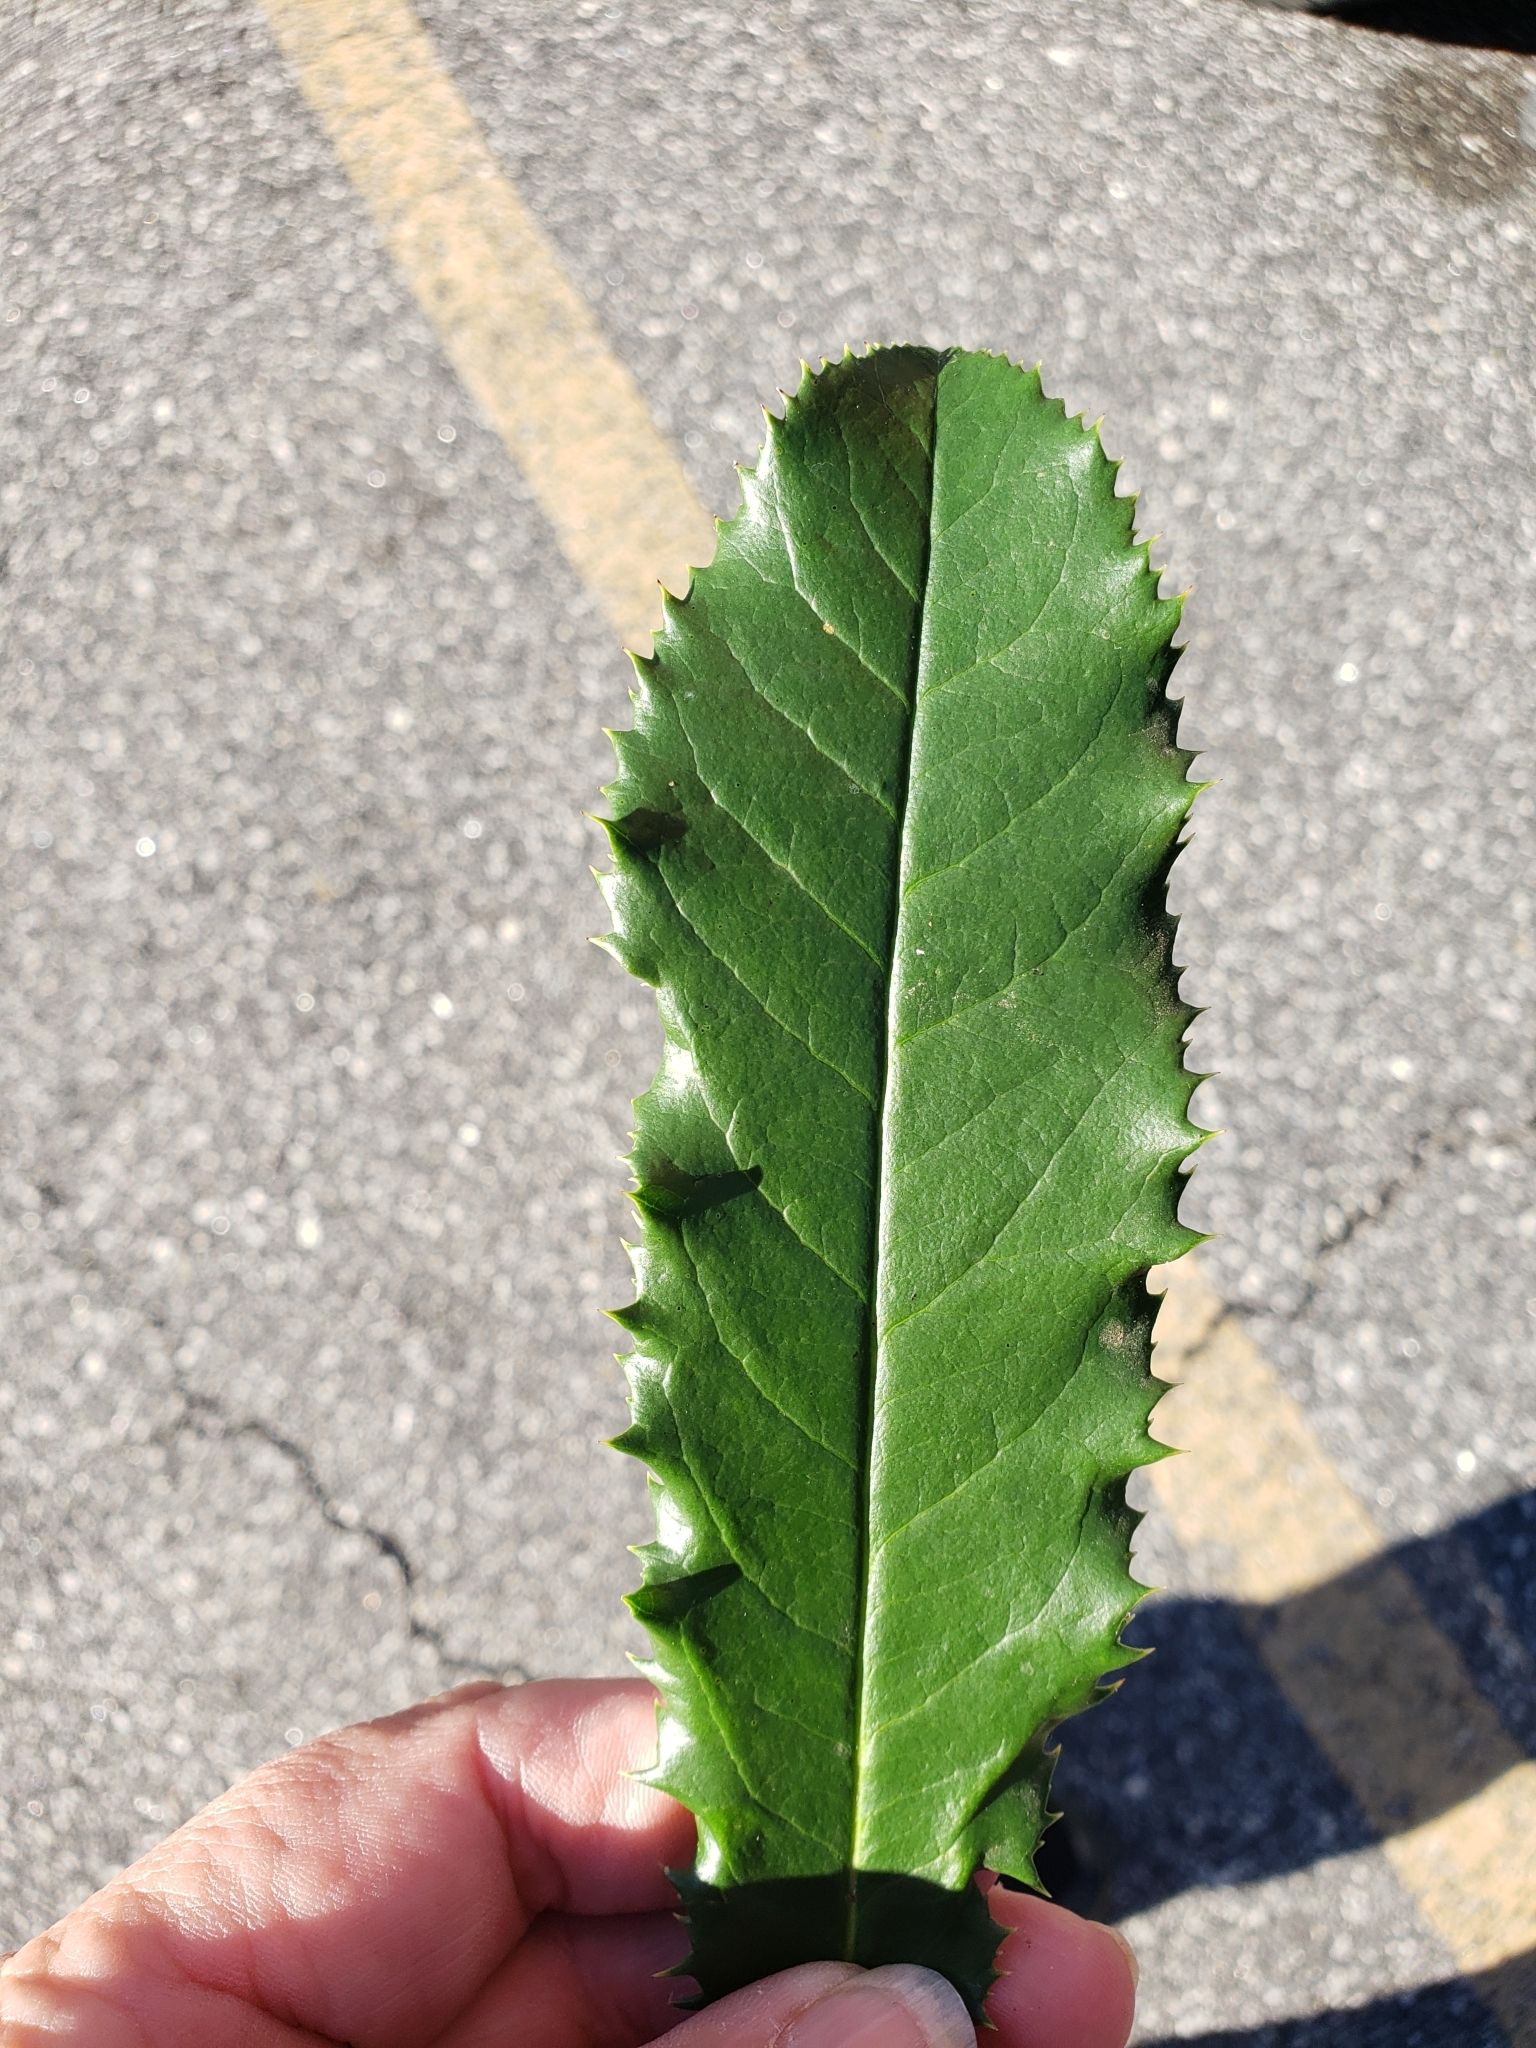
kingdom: Plantae
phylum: Tracheophyta
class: Magnoliopsida
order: Rosales
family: Rosaceae
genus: Photinia
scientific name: Photinia serratifolia
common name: Taiwanese photinia
